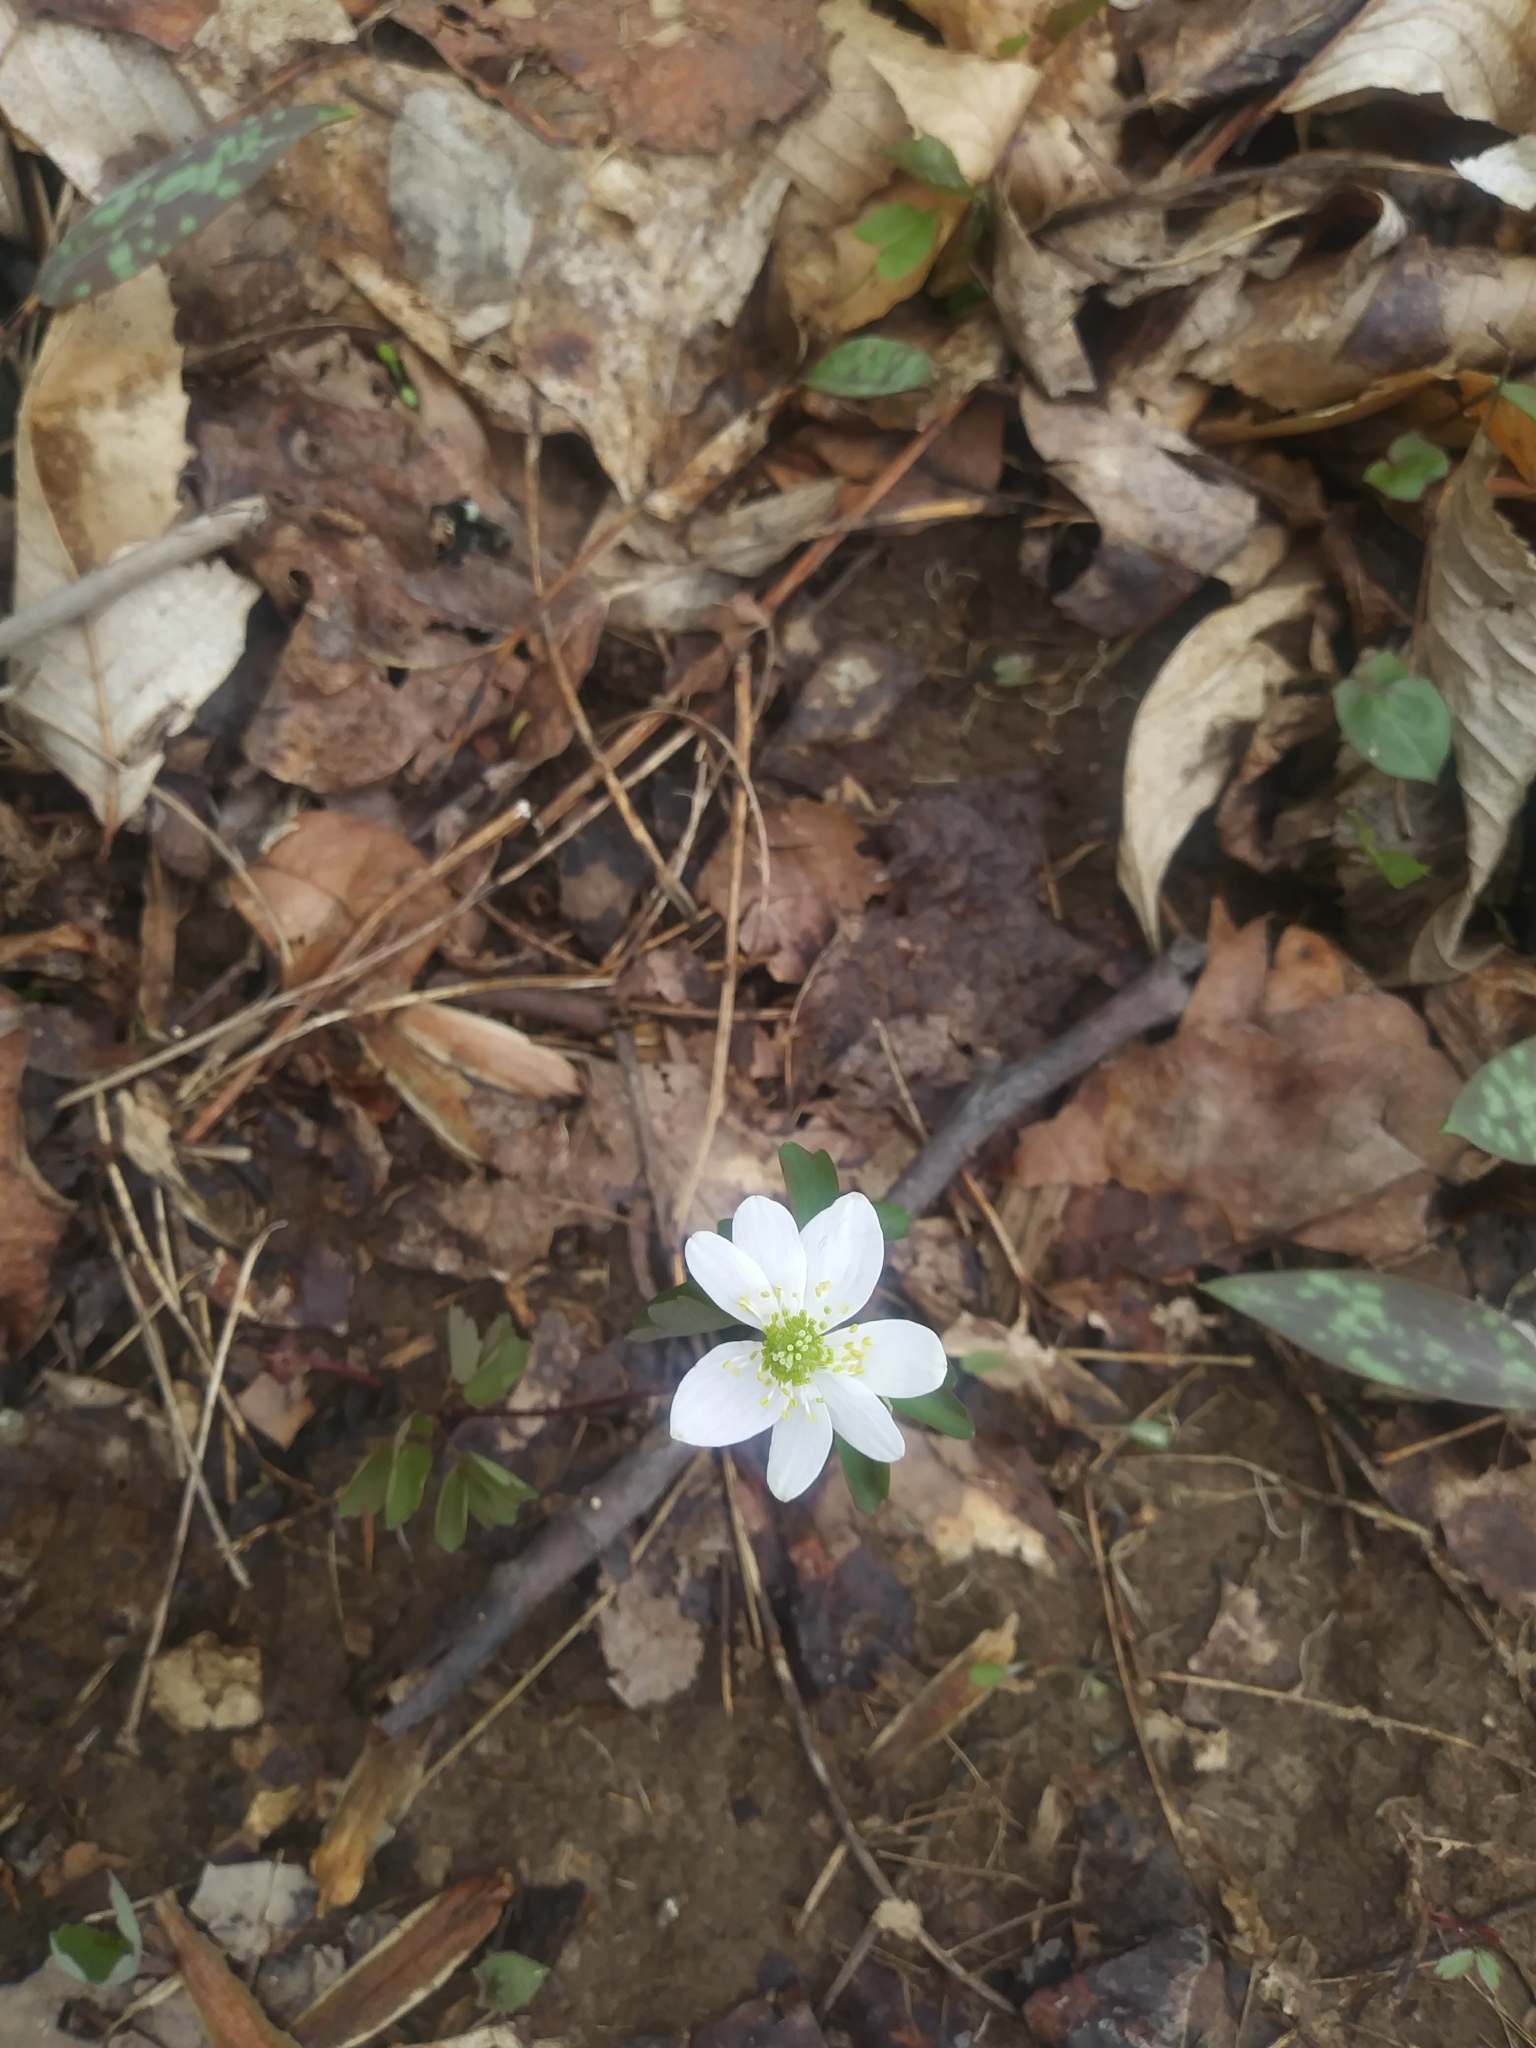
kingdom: Plantae
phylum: Tracheophyta
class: Magnoliopsida
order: Ranunculales
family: Ranunculaceae
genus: Thalictrum
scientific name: Thalictrum thalictroides
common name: Rue-anemone
